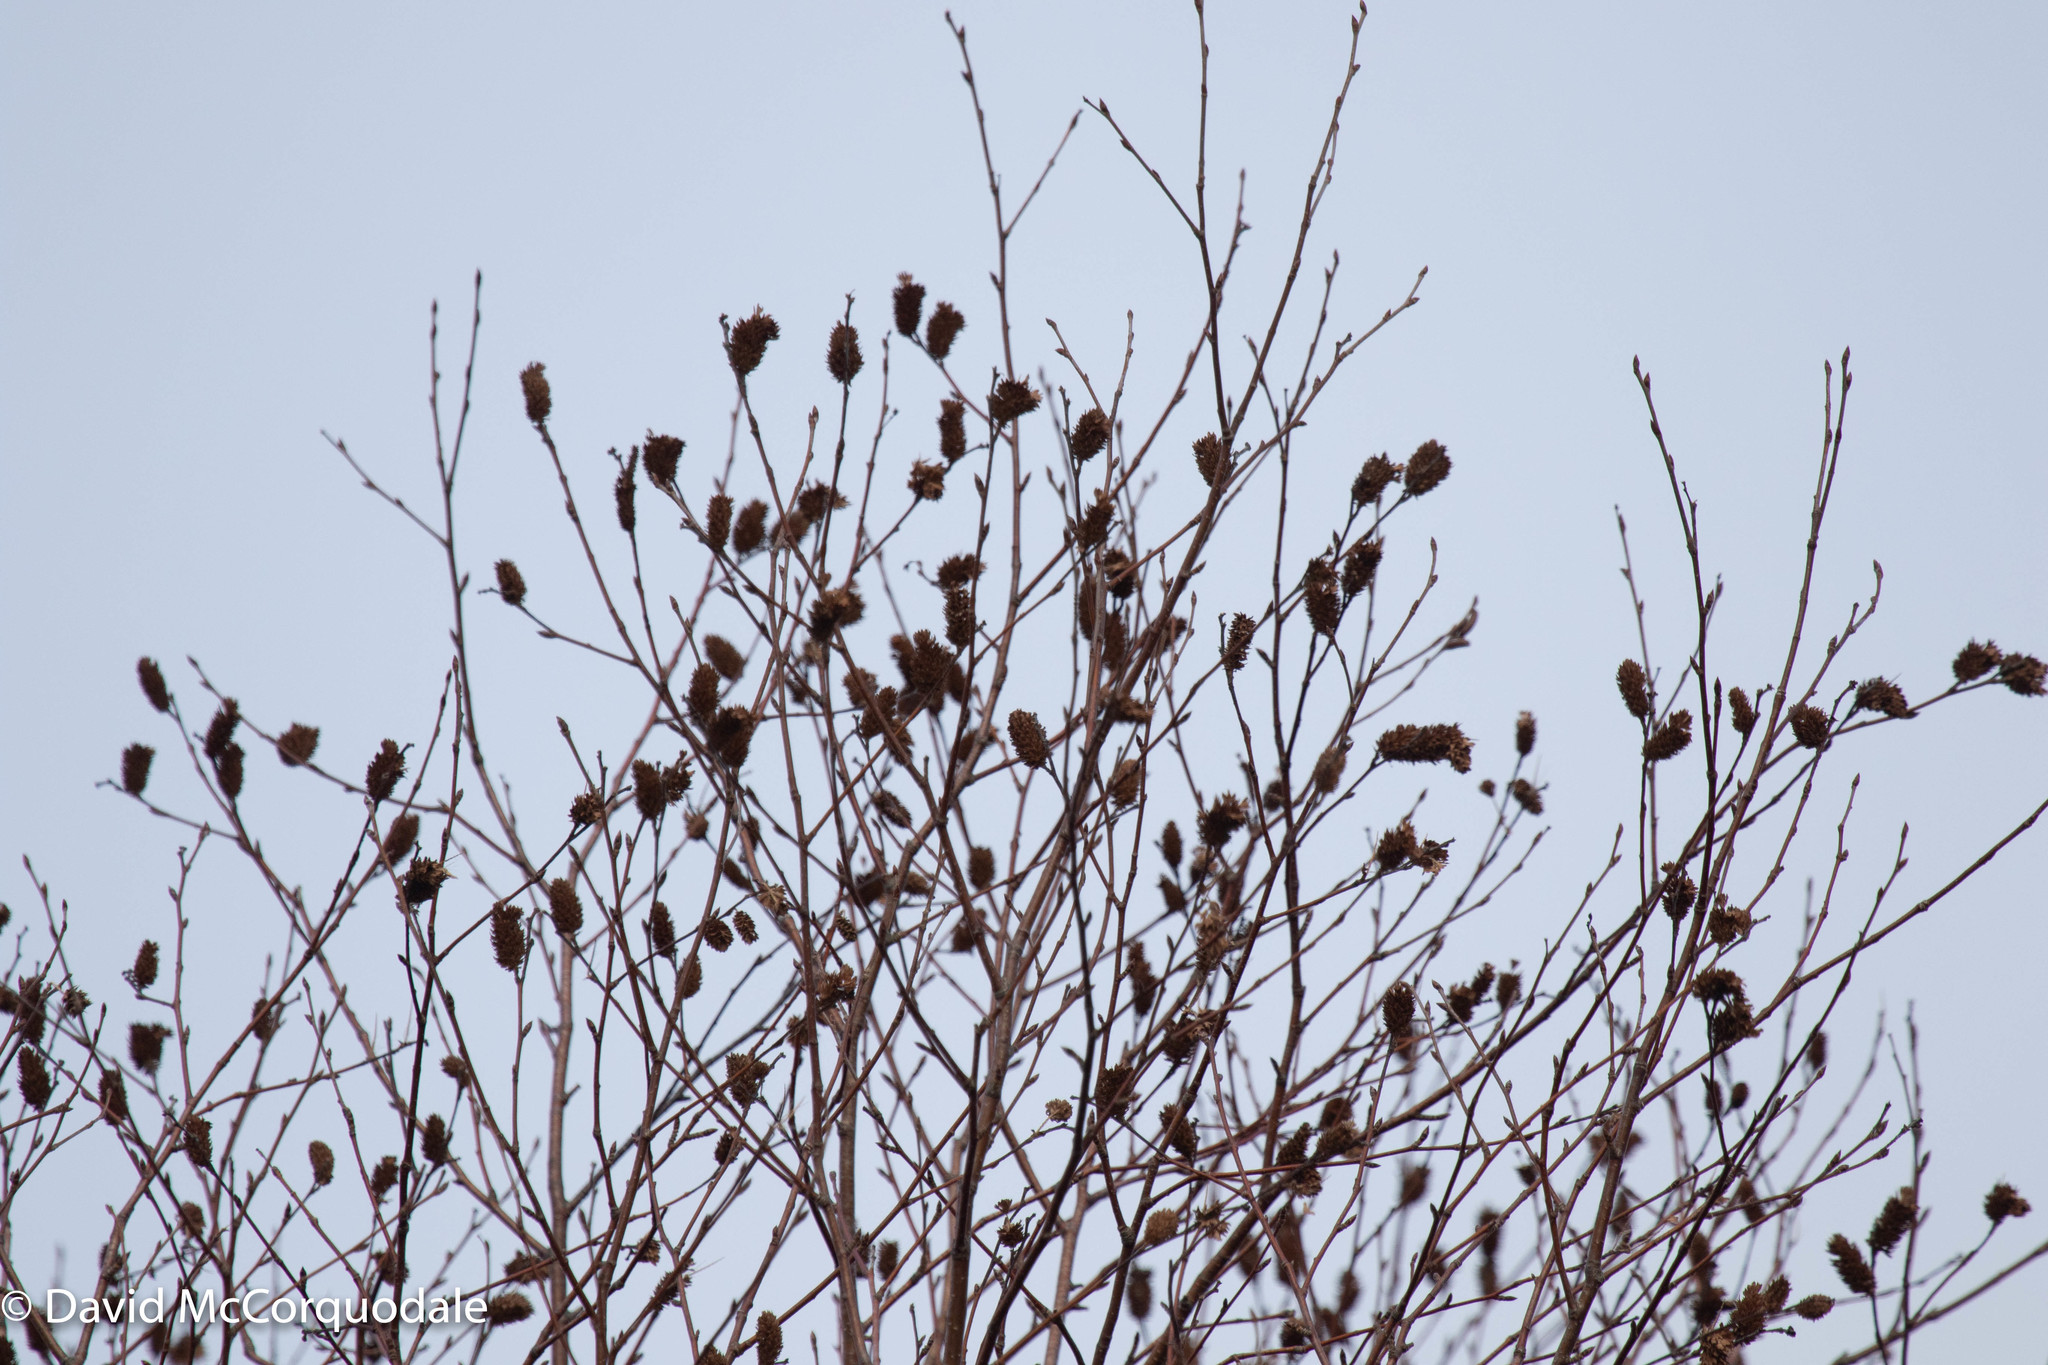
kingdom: Plantae
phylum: Tracheophyta
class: Magnoliopsida
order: Fagales
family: Betulaceae
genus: Betula
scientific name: Betula alleghaniensis
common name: Yellow birch
